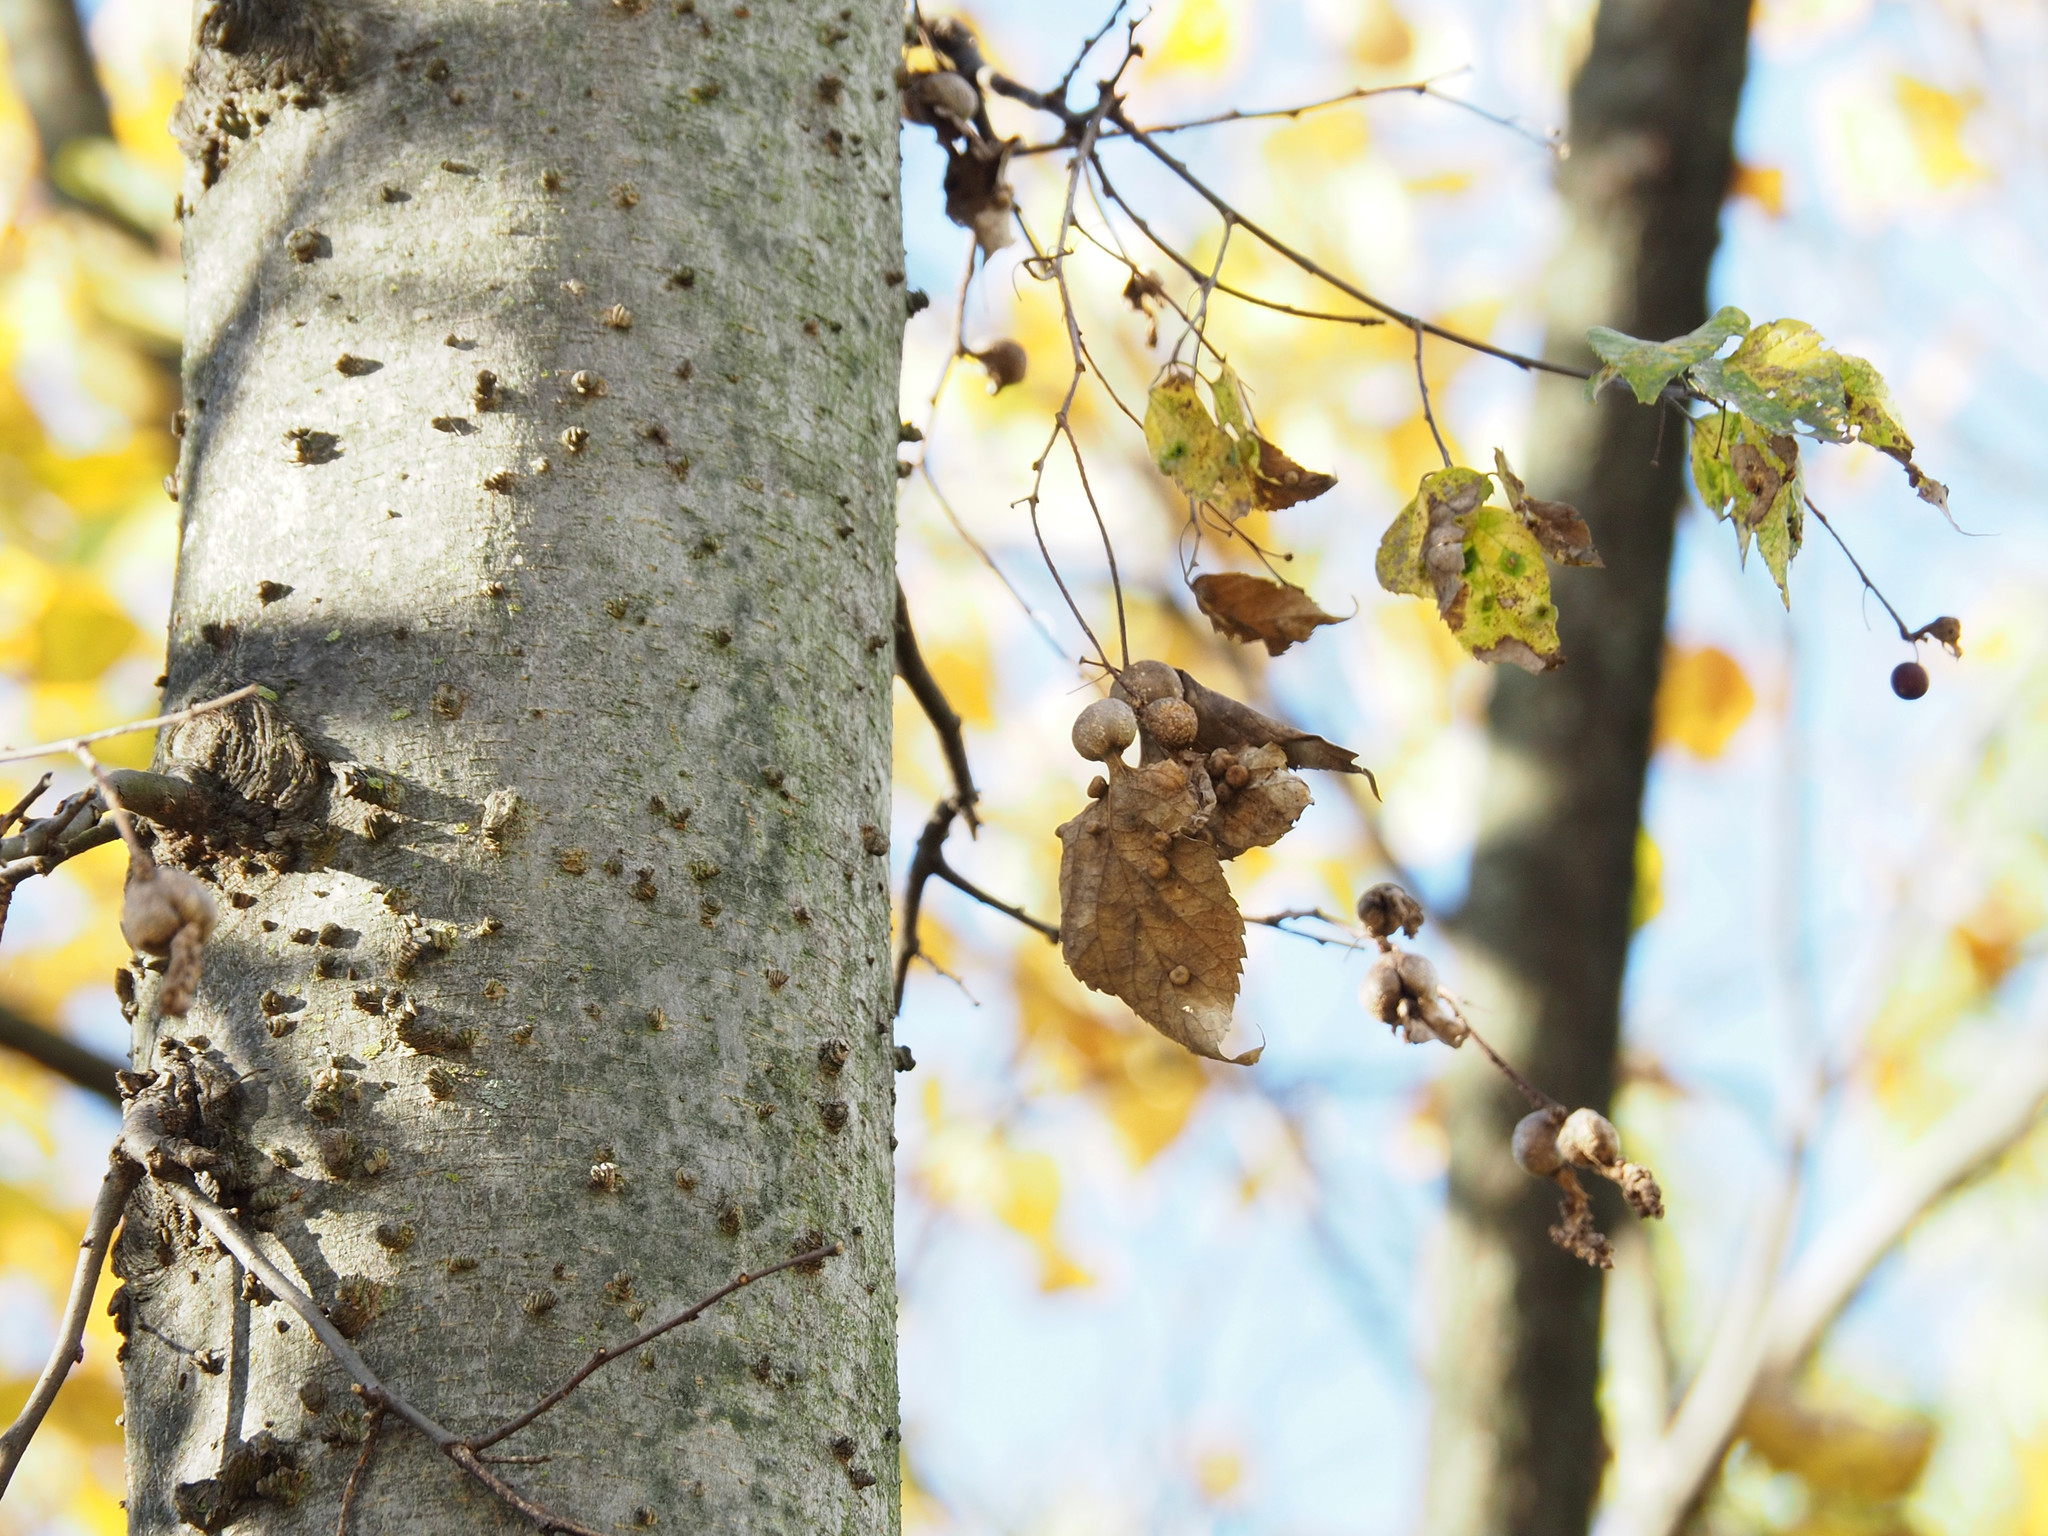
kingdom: Animalia
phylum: Arthropoda
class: Insecta
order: Hemiptera
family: Aphalaridae
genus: Pachypsylla
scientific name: Pachypsylla venusta
